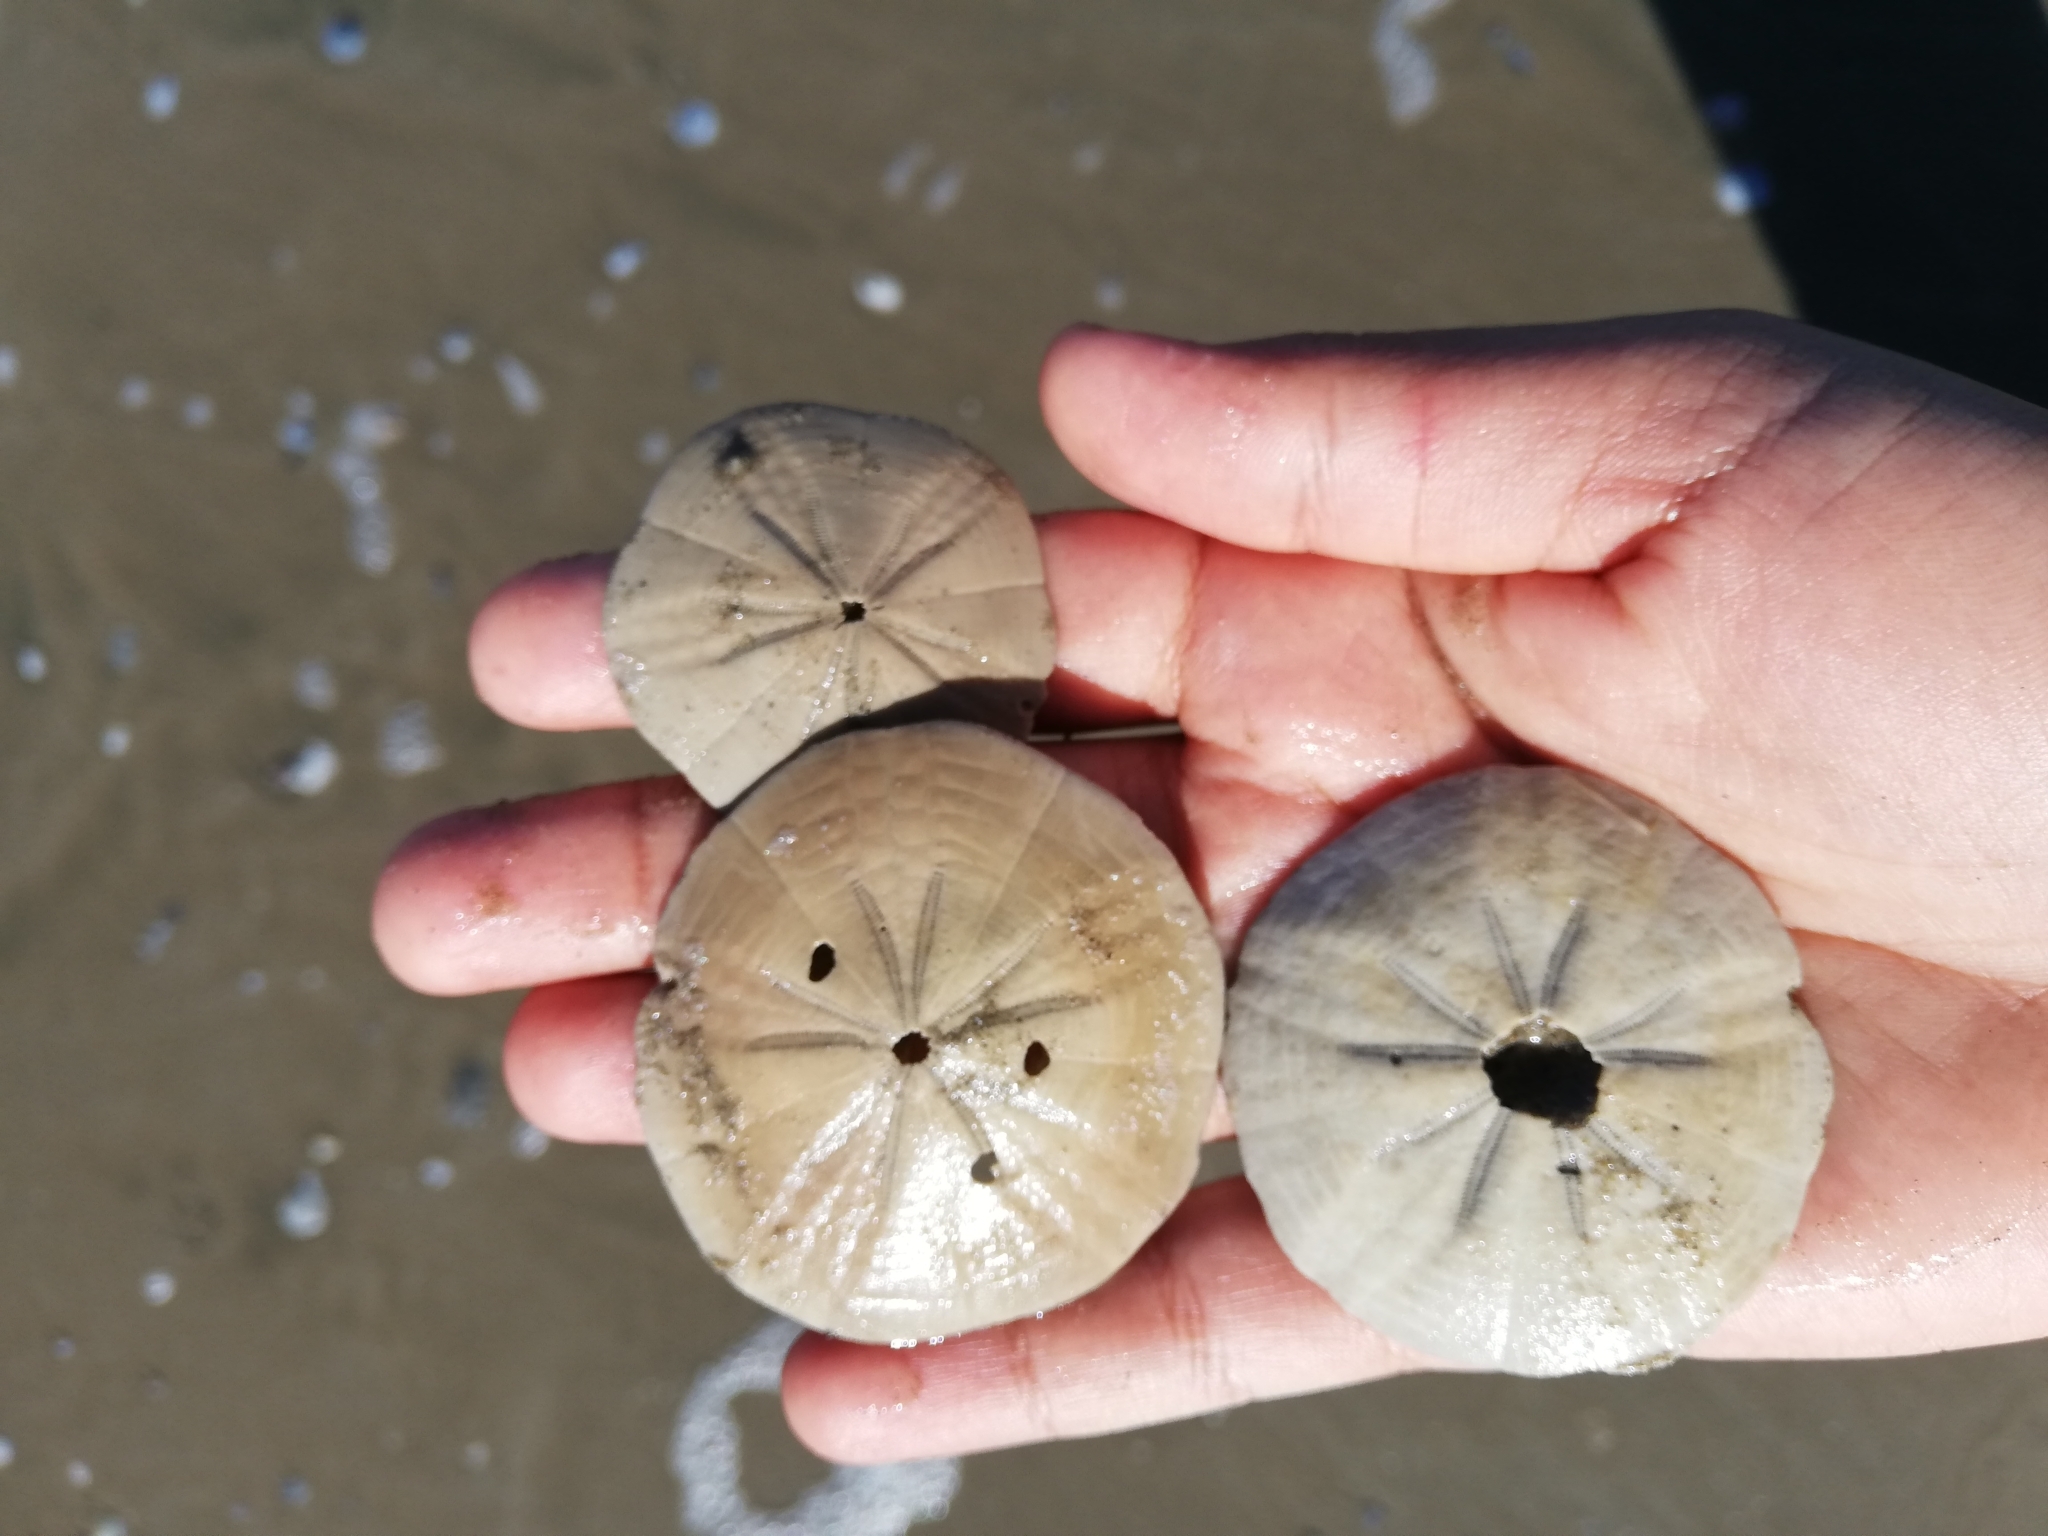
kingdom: Animalia
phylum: Echinodermata
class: Echinoidea
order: Clypeasteroida
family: Clypeasteridae
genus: Arachnoides
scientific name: Arachnoides placenta
